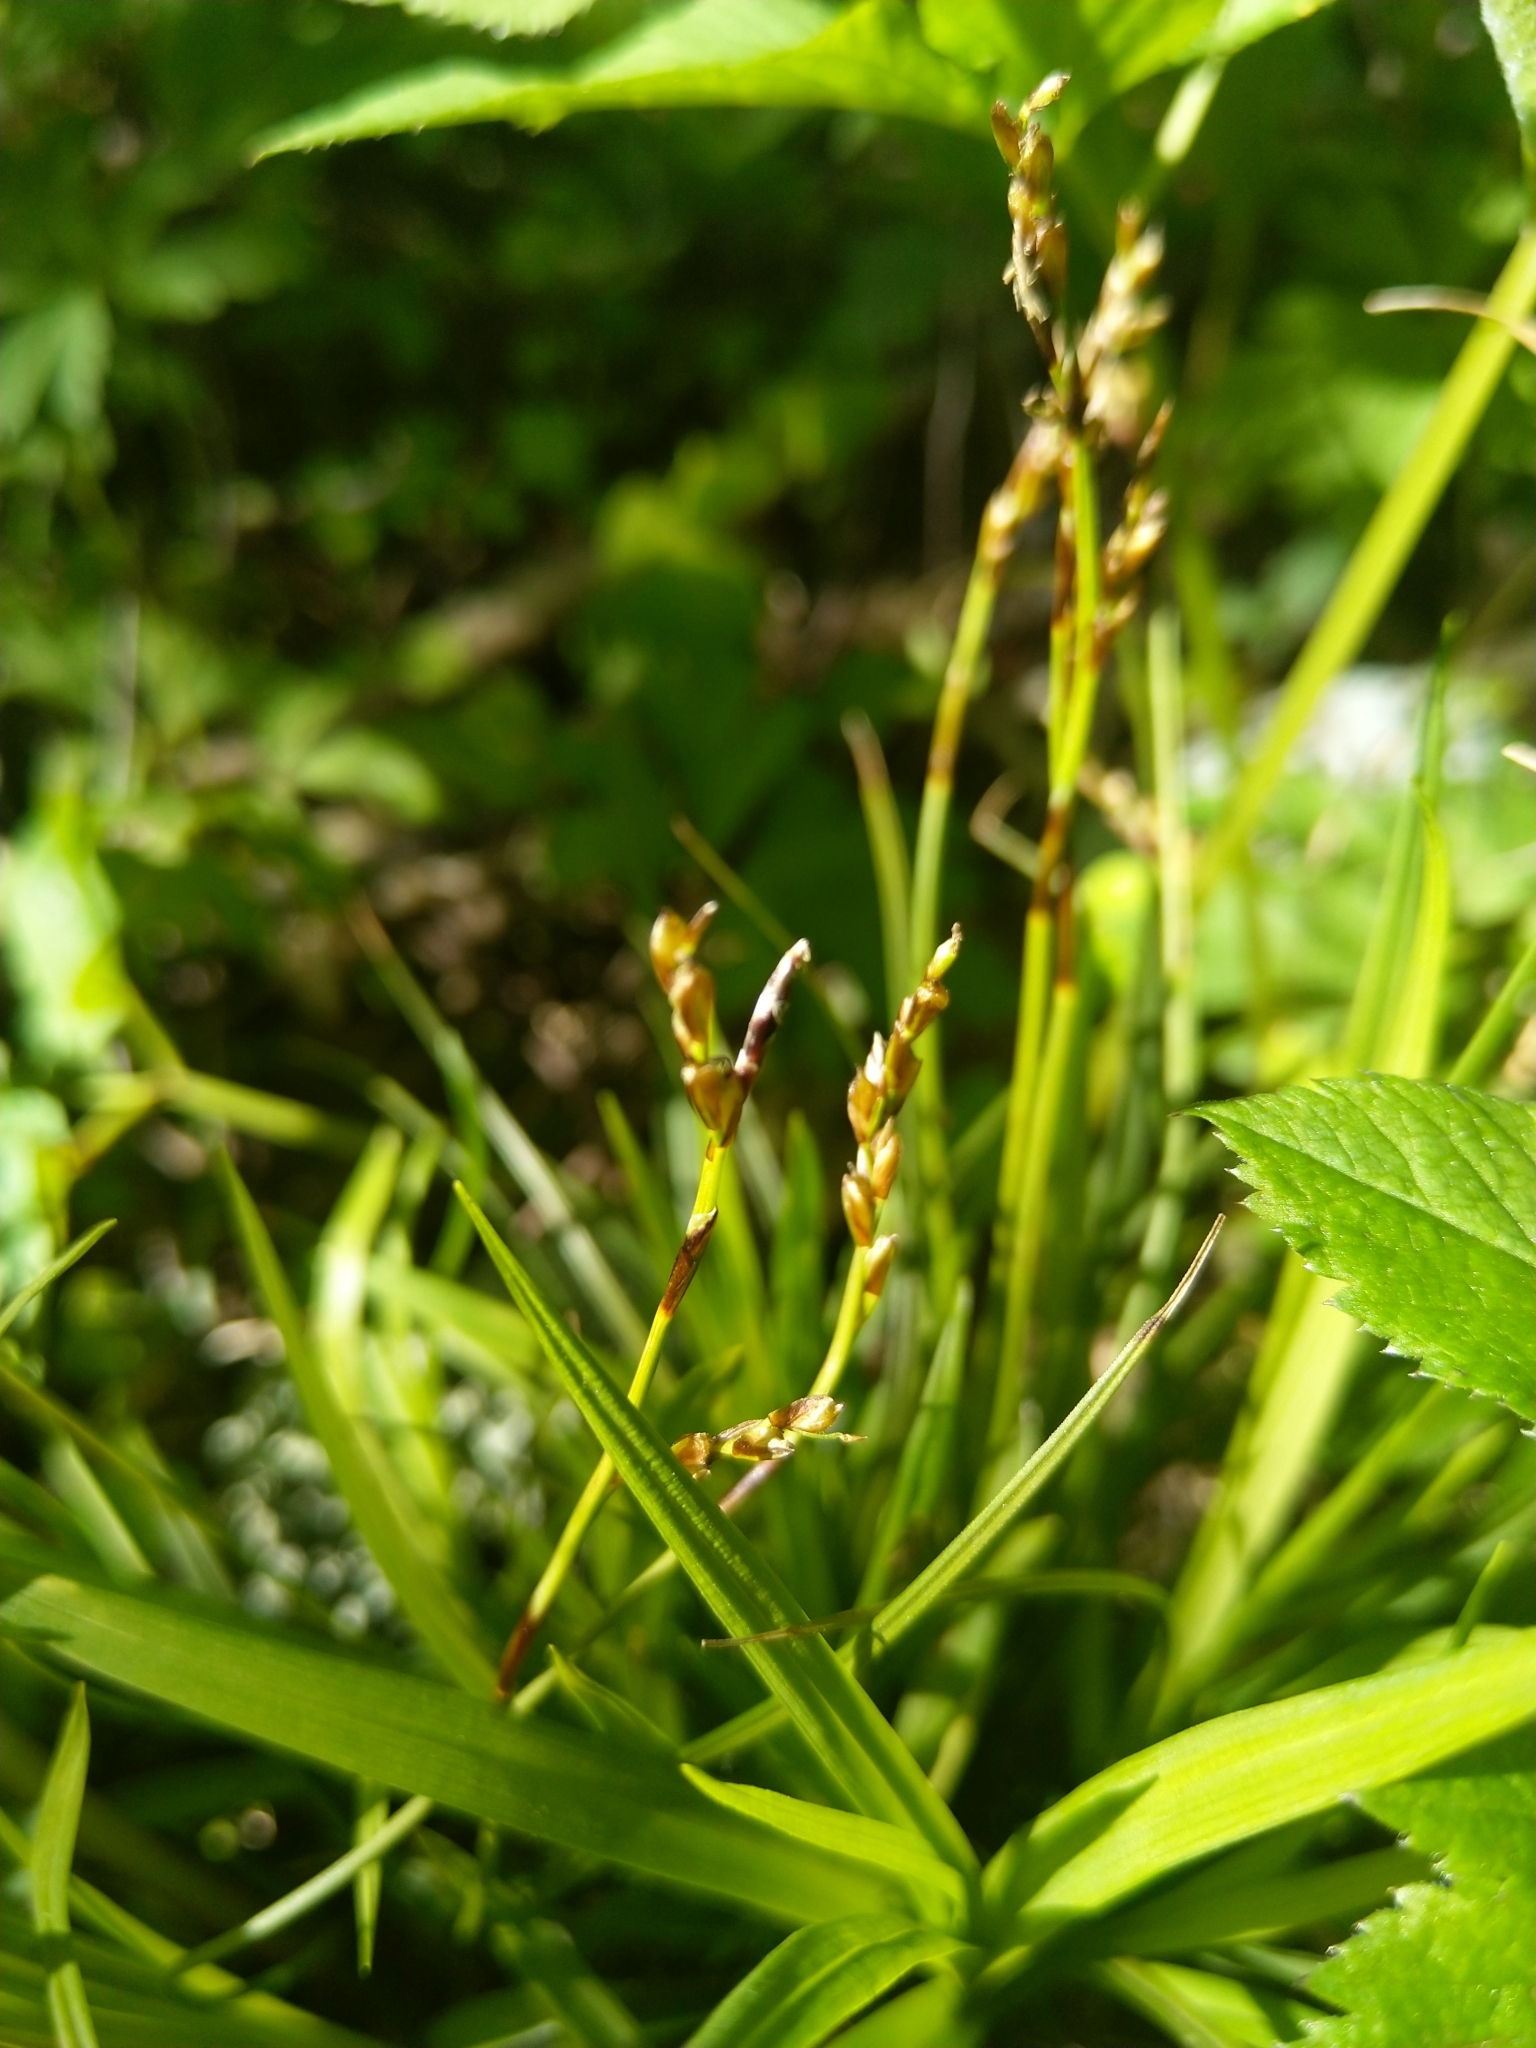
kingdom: Plantae
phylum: Tracheophyta
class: Liliopsida
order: Poales
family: Cyperaceae
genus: Carex
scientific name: Carex digitata
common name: Fingered sedge
